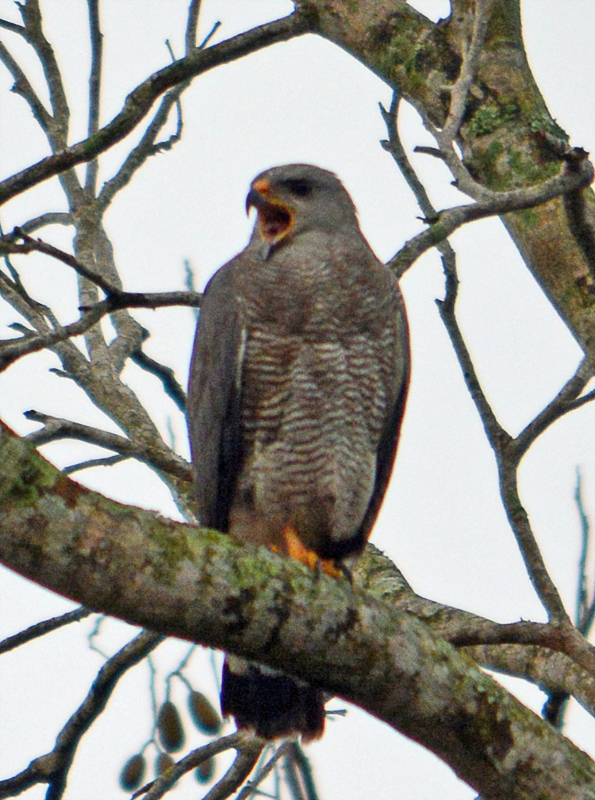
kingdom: Animalia
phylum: Chordata
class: Aves
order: Accipitriformes
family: Accipitridae
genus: Buteo
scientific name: Buteo nitidus
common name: Grey-lined hawk
